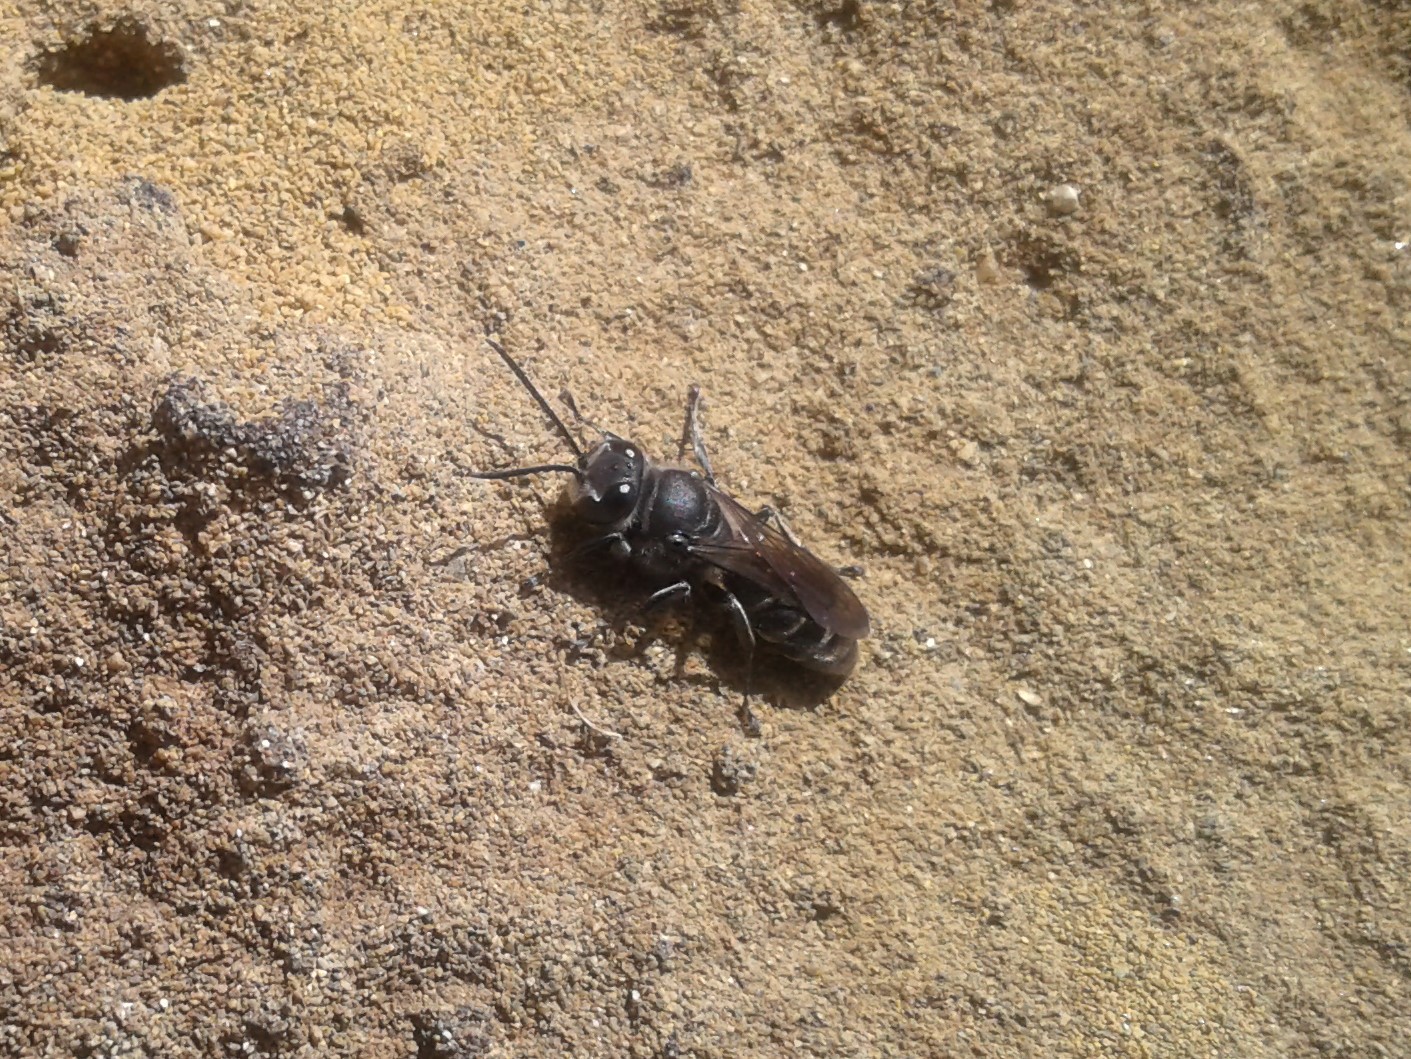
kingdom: Animalia
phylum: Arthropoda
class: Insecta
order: Hymenoptera
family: Crabronidae
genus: Pison
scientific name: Pison spinolae
